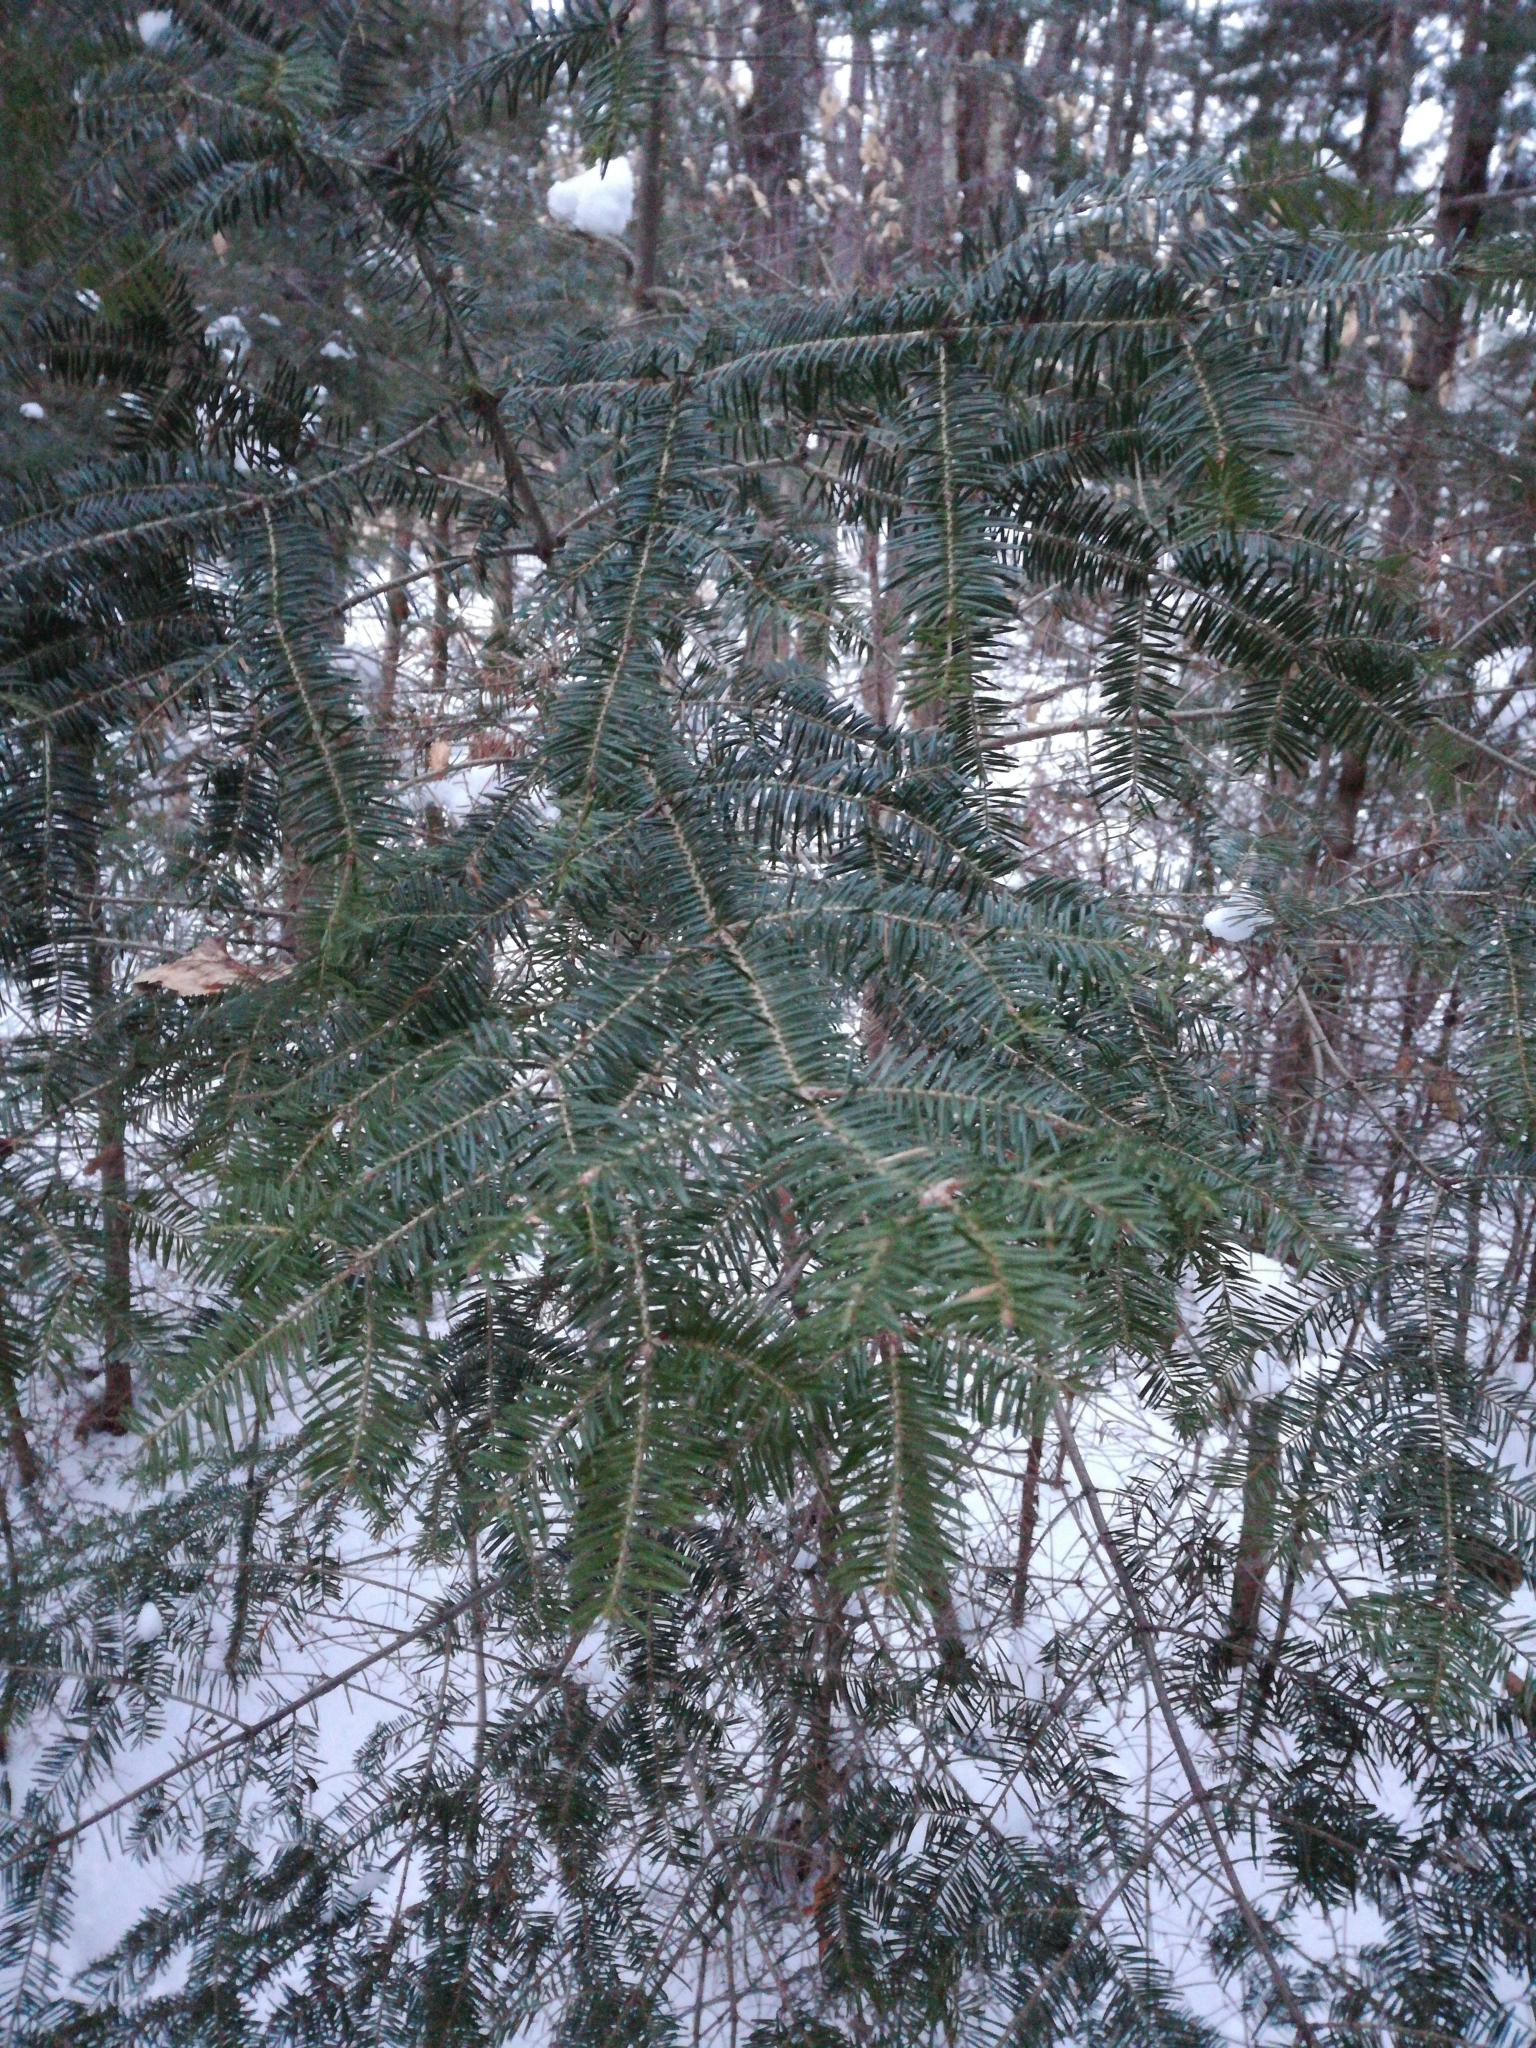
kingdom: Plantae
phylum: Tracheophyta
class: Pinopsida
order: Pinales
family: Pinaceae
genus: Abies
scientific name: Abies balsamea
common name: Balsam fir
